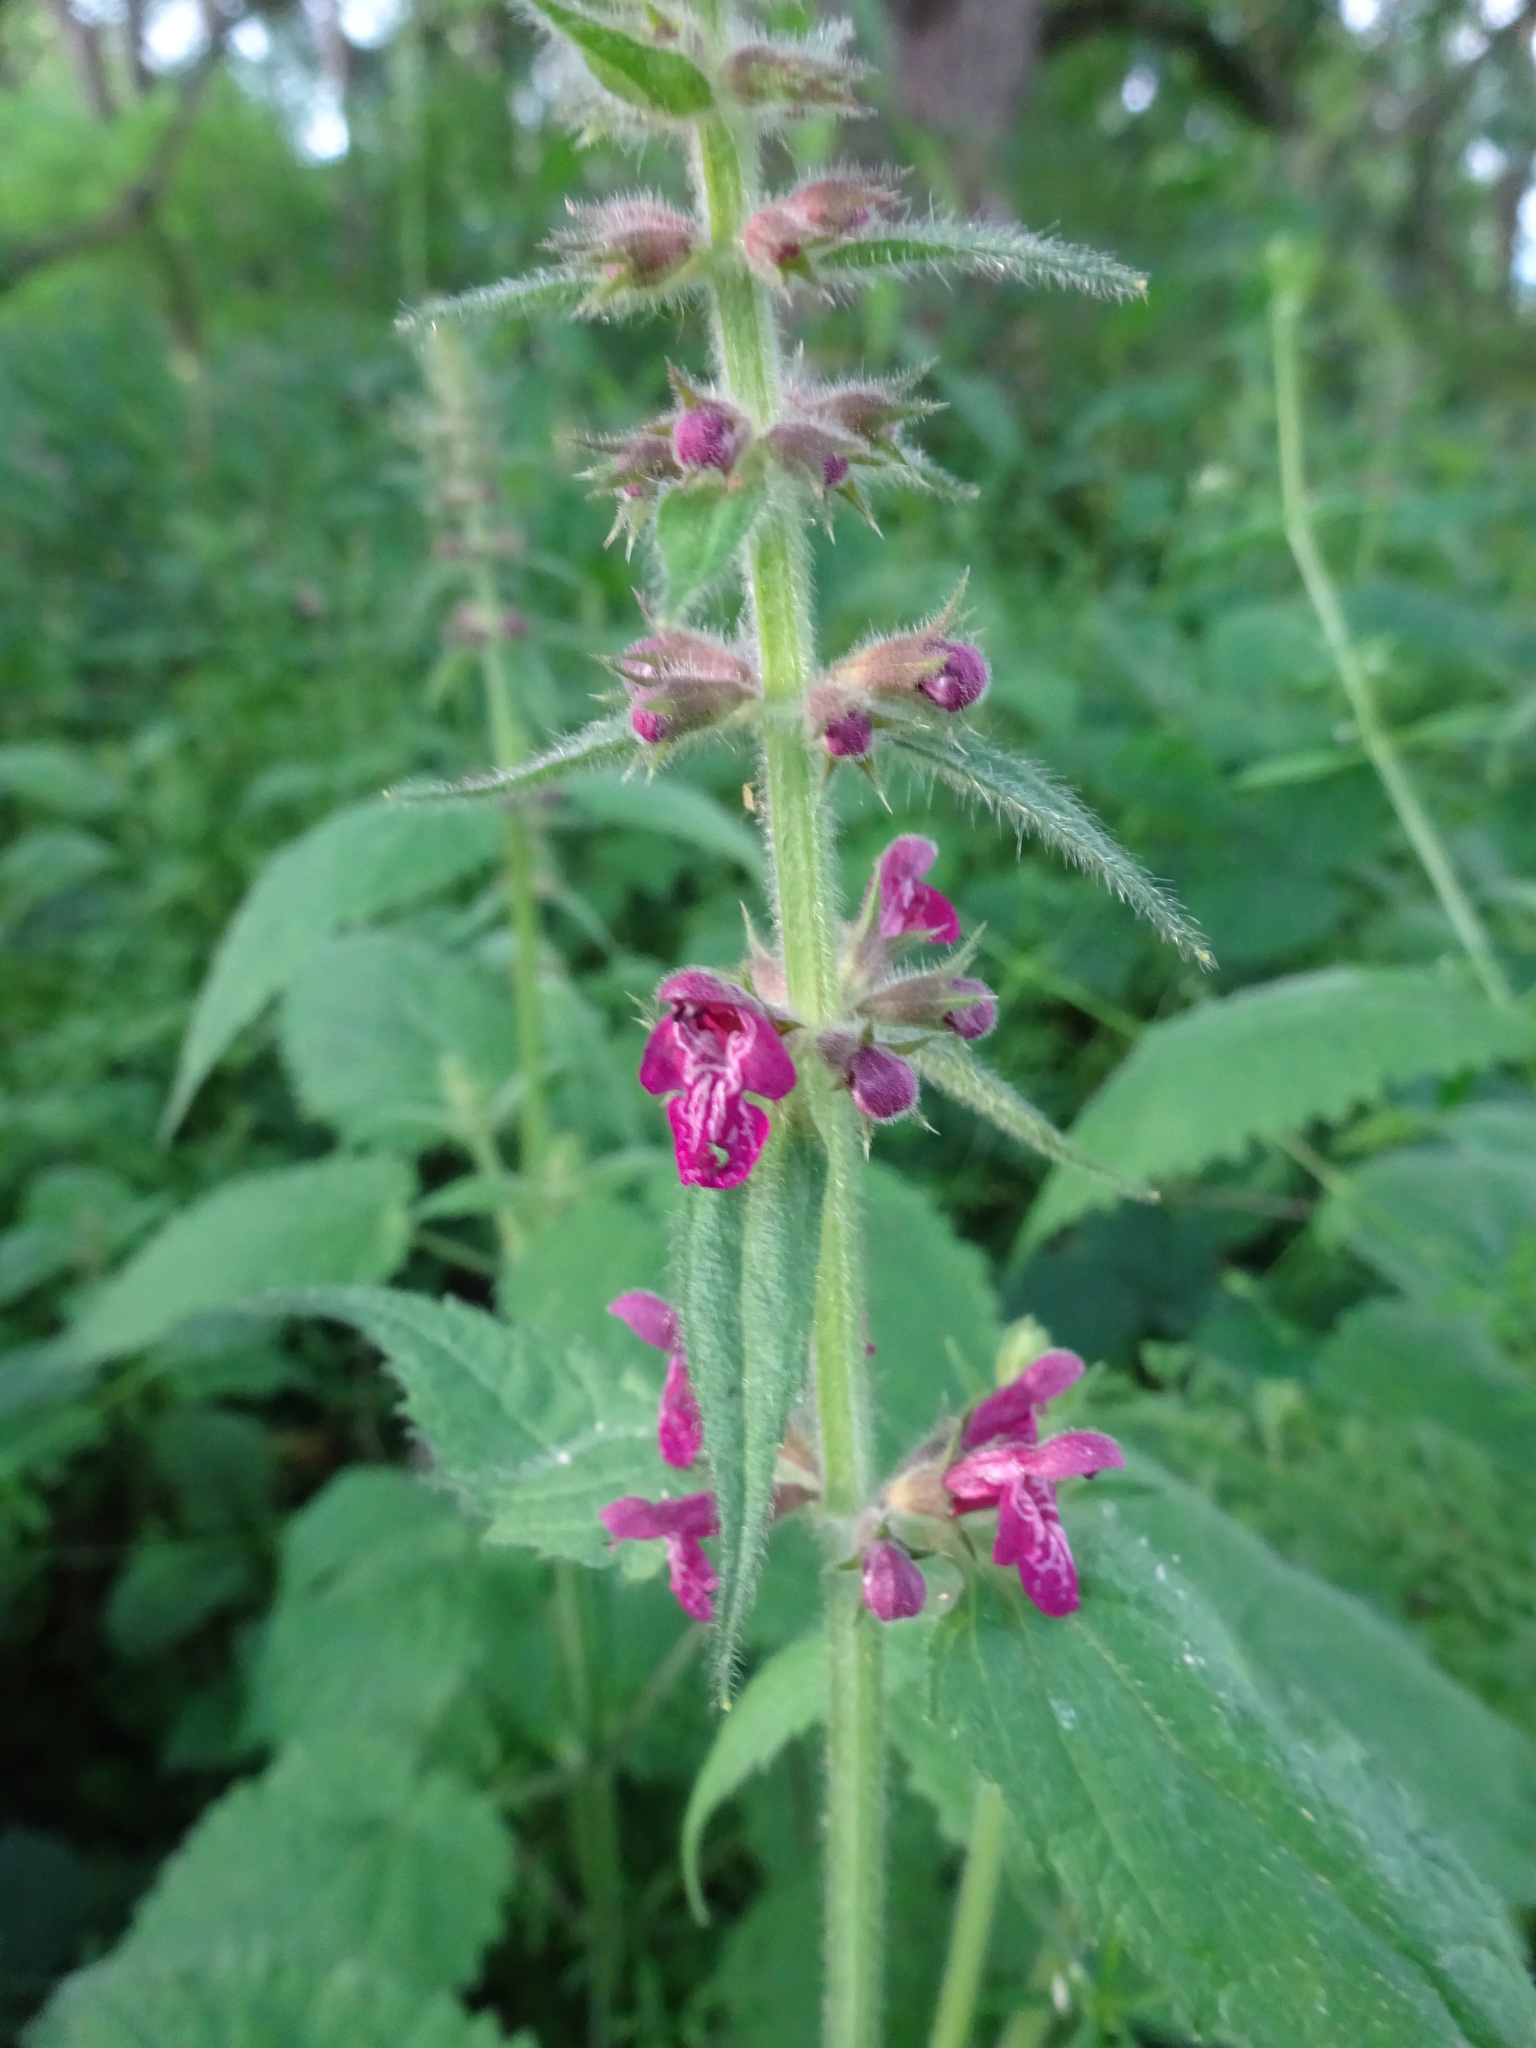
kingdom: Plantae
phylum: Tracheophyta
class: Magnoliopsida
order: Lamiales
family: Lamiaceae
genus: Stachys
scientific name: Stachys sylvatica
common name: Hedge woundwort
